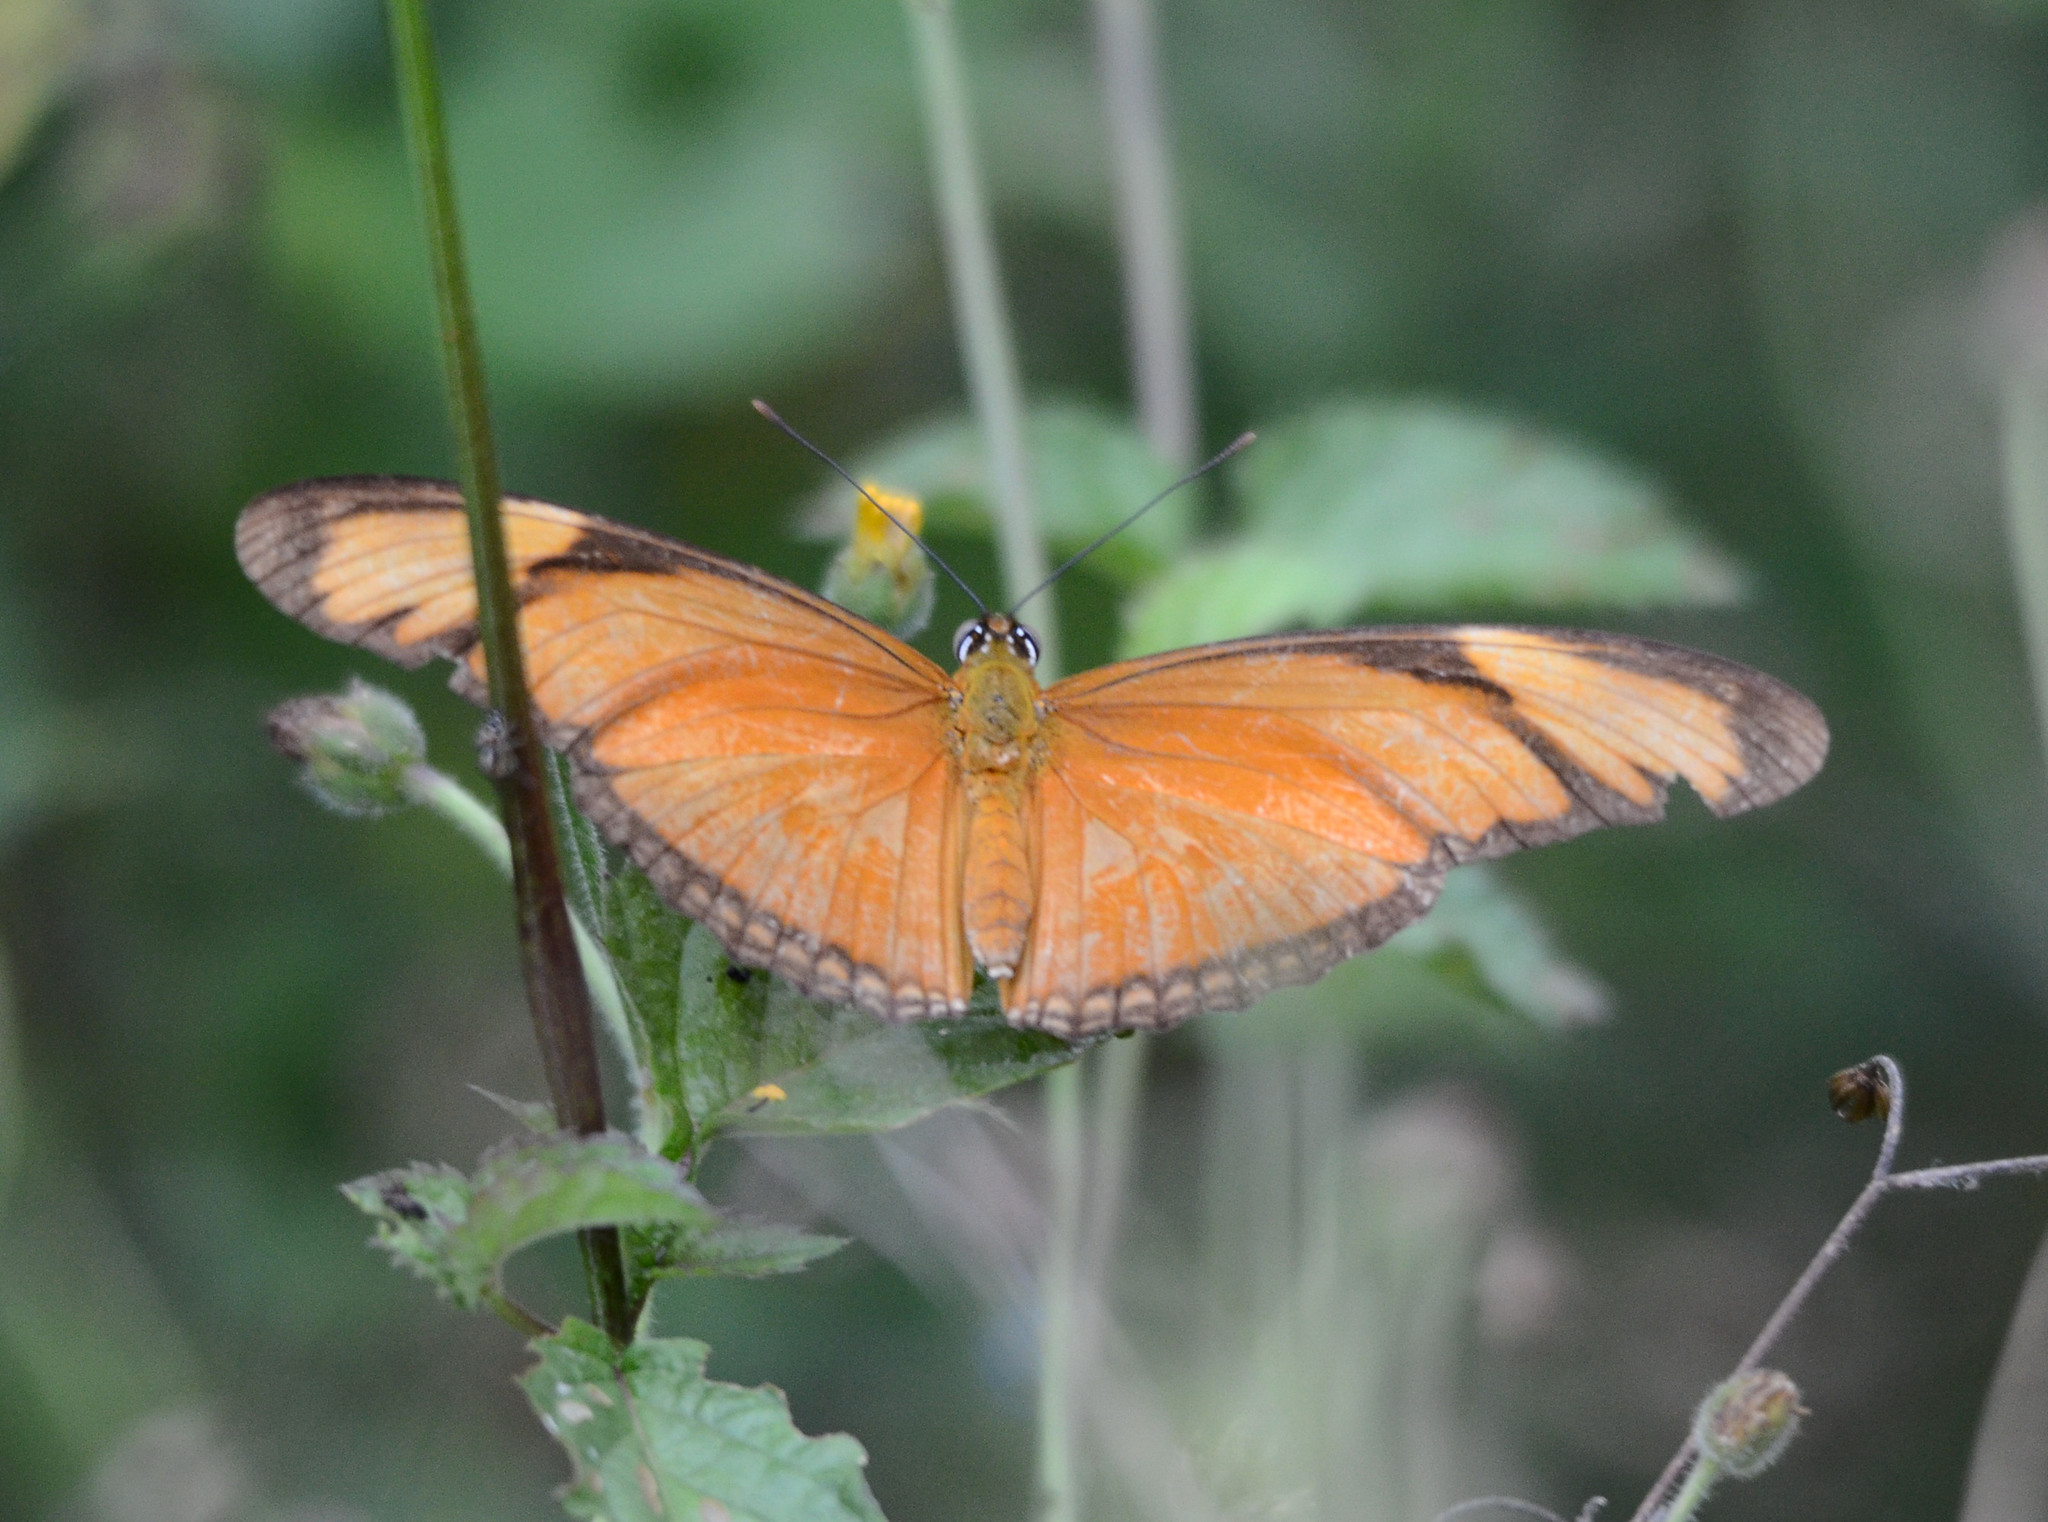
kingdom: Animalia
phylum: Arthropoda
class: Insecta
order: Lepidoptera
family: Nymphalidae
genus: Dryas
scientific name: Dryas iulia
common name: Flambeau
